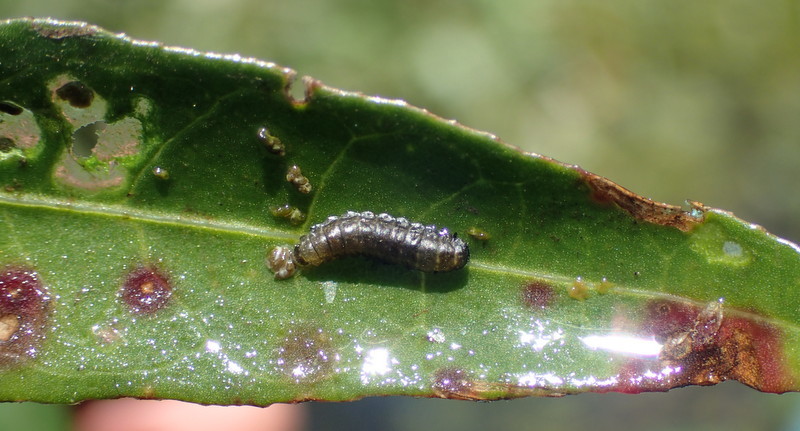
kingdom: Animalia
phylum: Arthropoda
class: Insecta
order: Coleoptera
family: Chrysomelidae
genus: Agasicles
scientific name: Agasicles hygrophila
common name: Alligatorweed flea beetle
